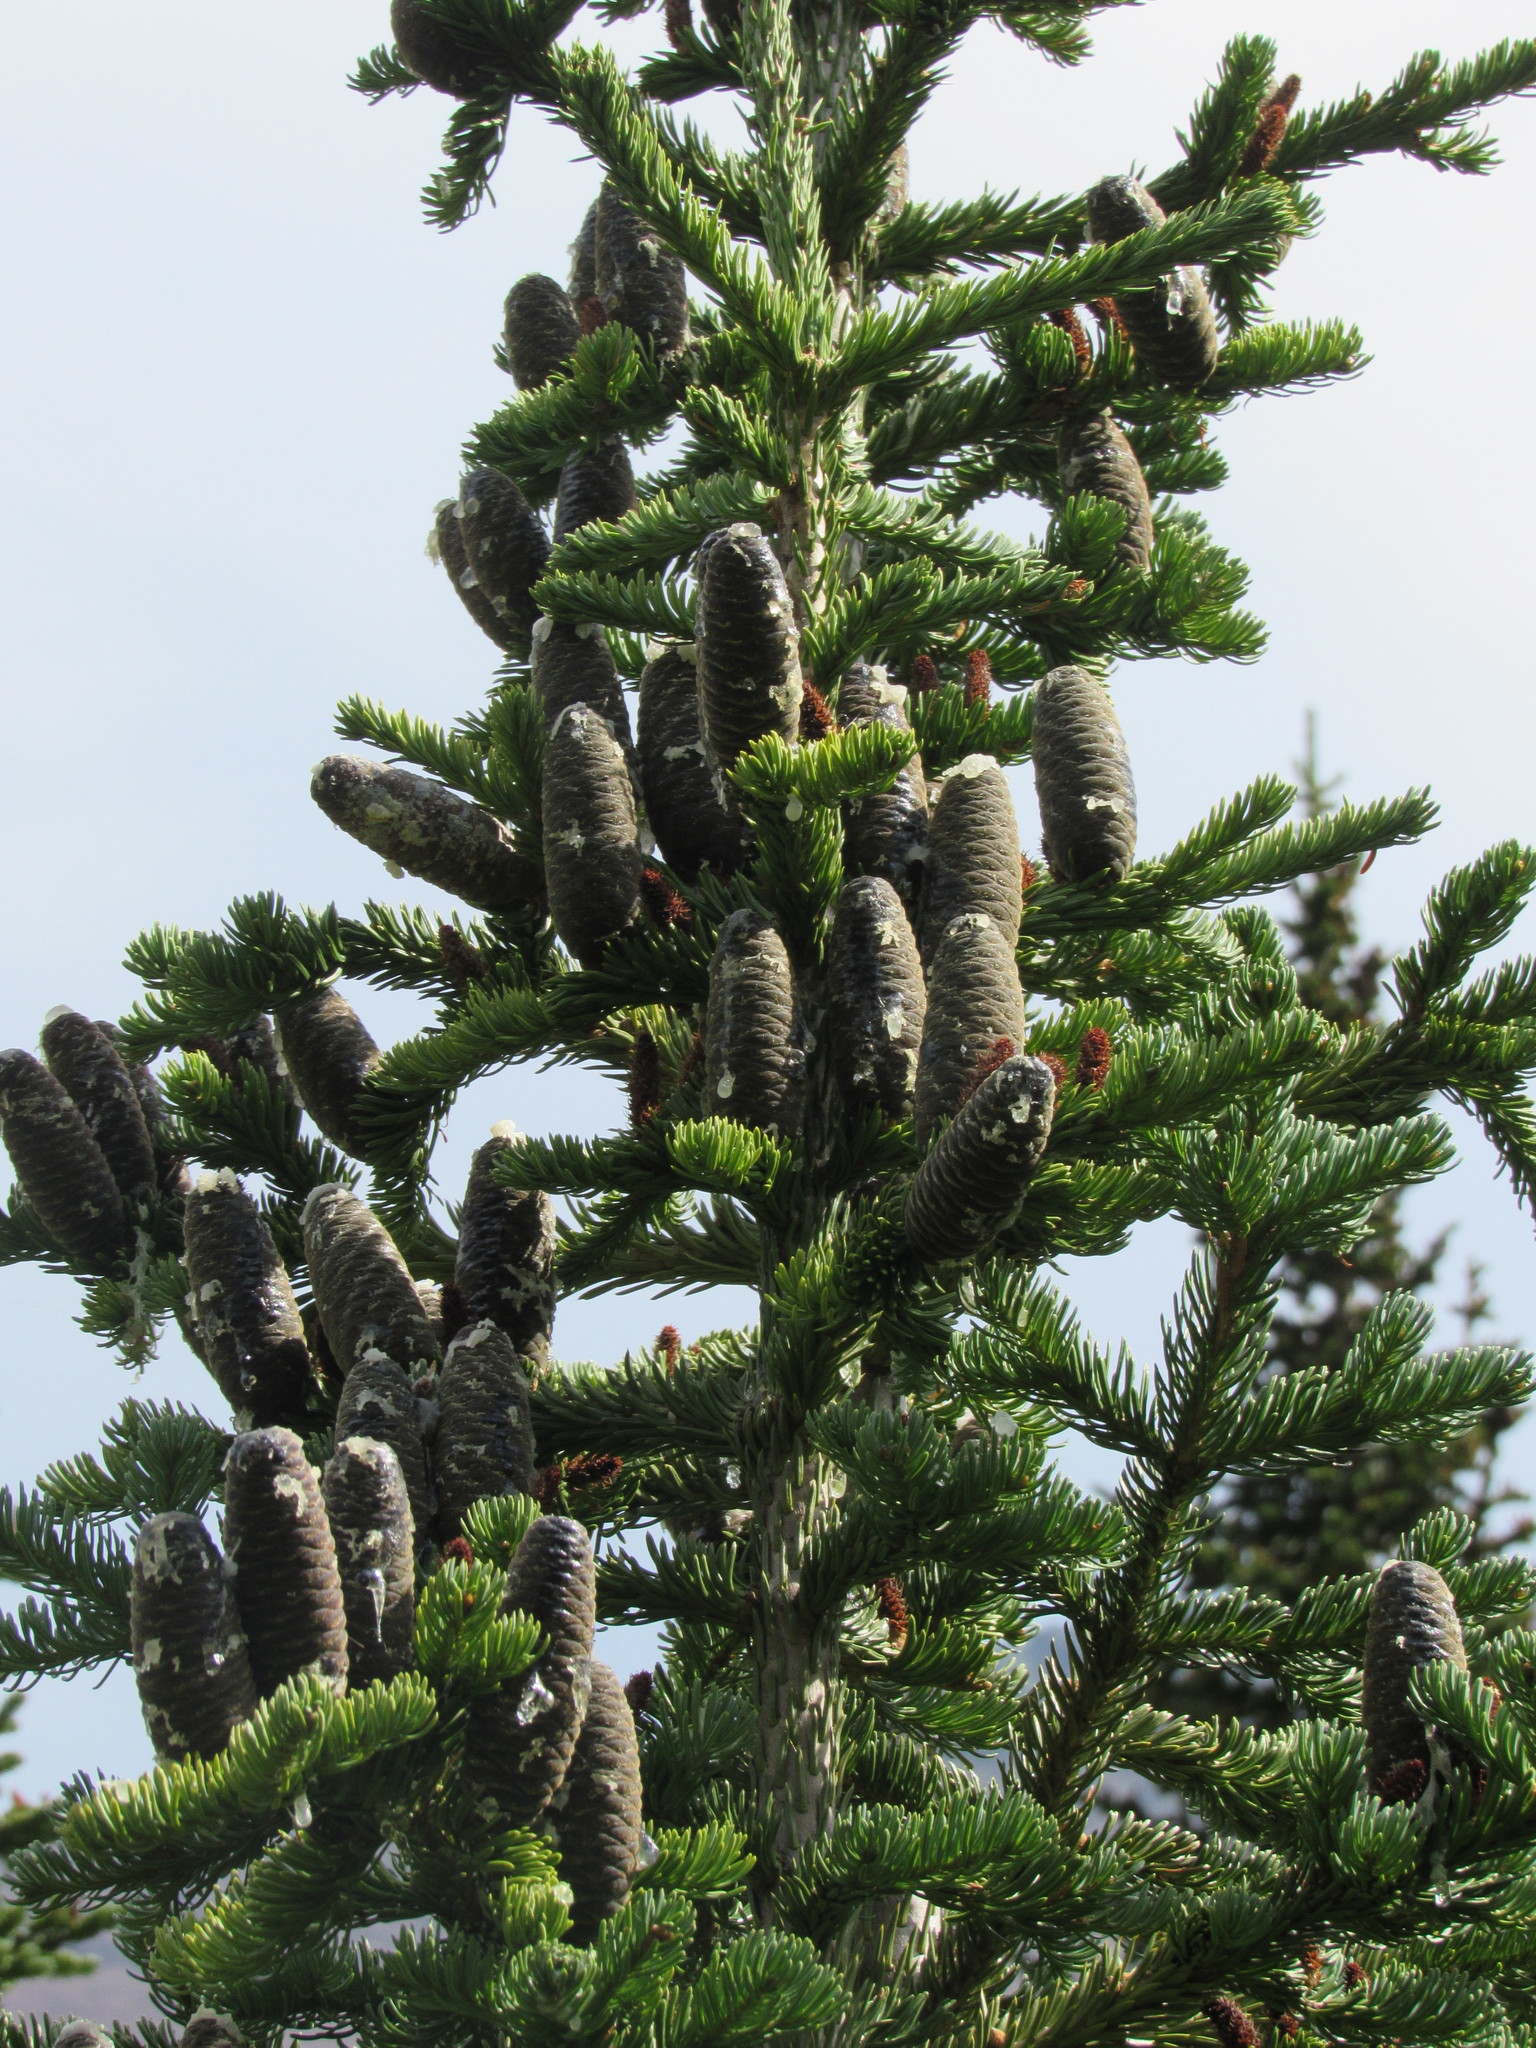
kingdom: Plantae
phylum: Tracheophyta
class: Pinopsida
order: Pinales
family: Pinaceae
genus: Abies
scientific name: Abies lasiocarpa
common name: Subalpine fir
